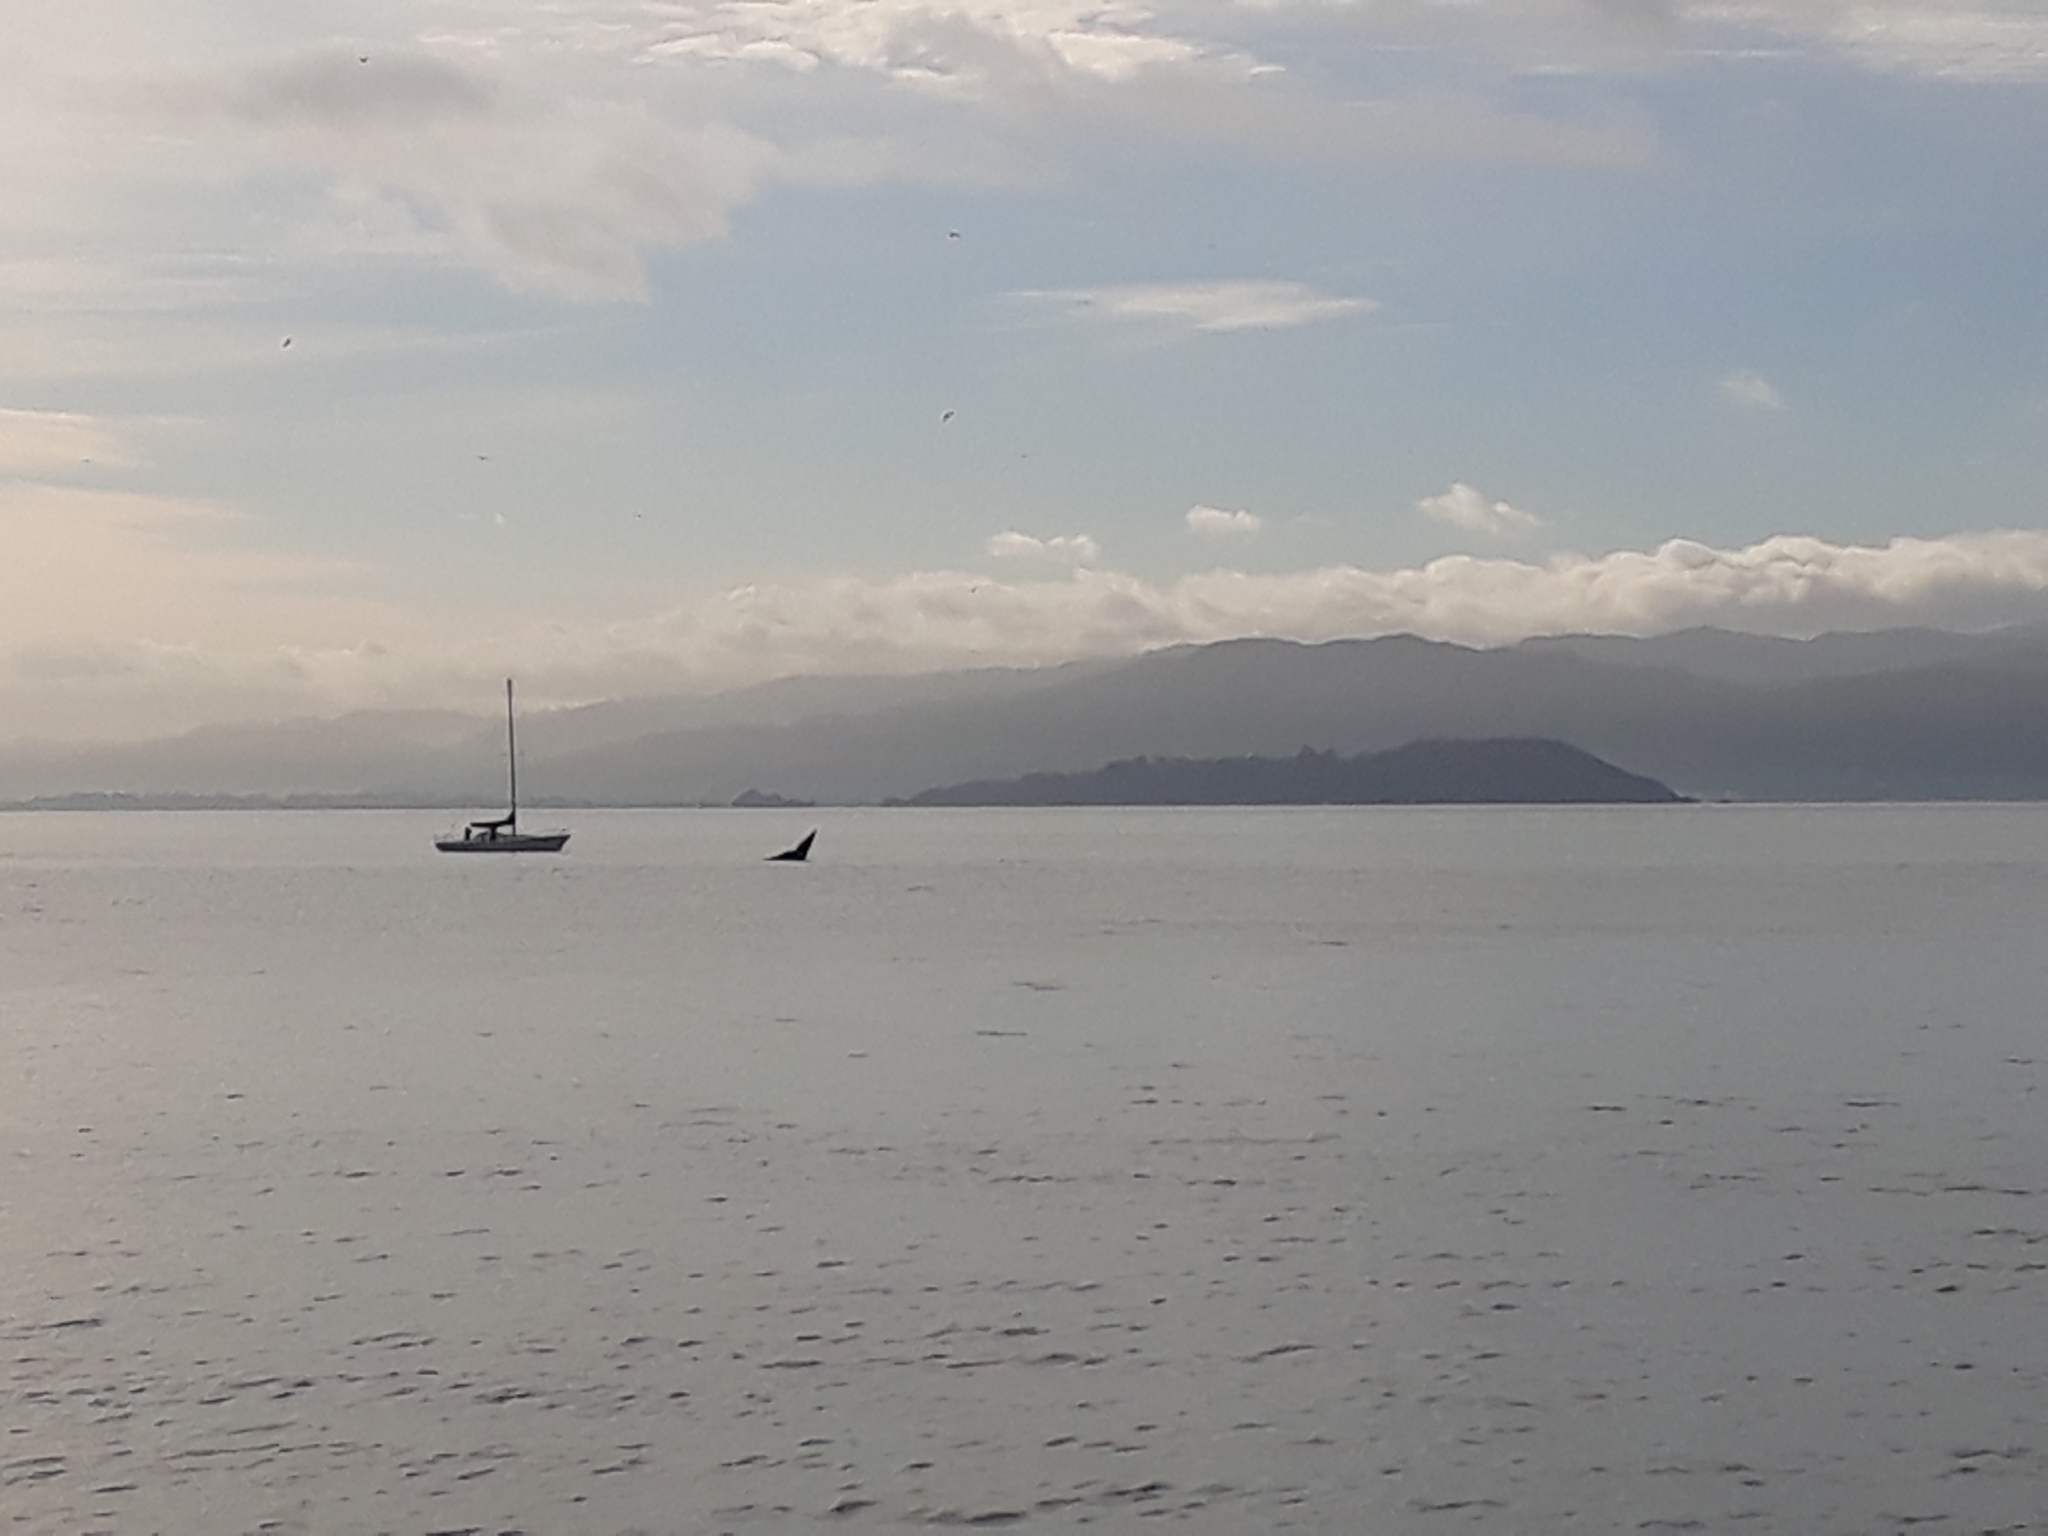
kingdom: Animalia
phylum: Chordata
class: Mammalia
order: Cetacea
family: Balaenidae
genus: Eubalaena
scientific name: Eubalaena australis
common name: Southern right whale
